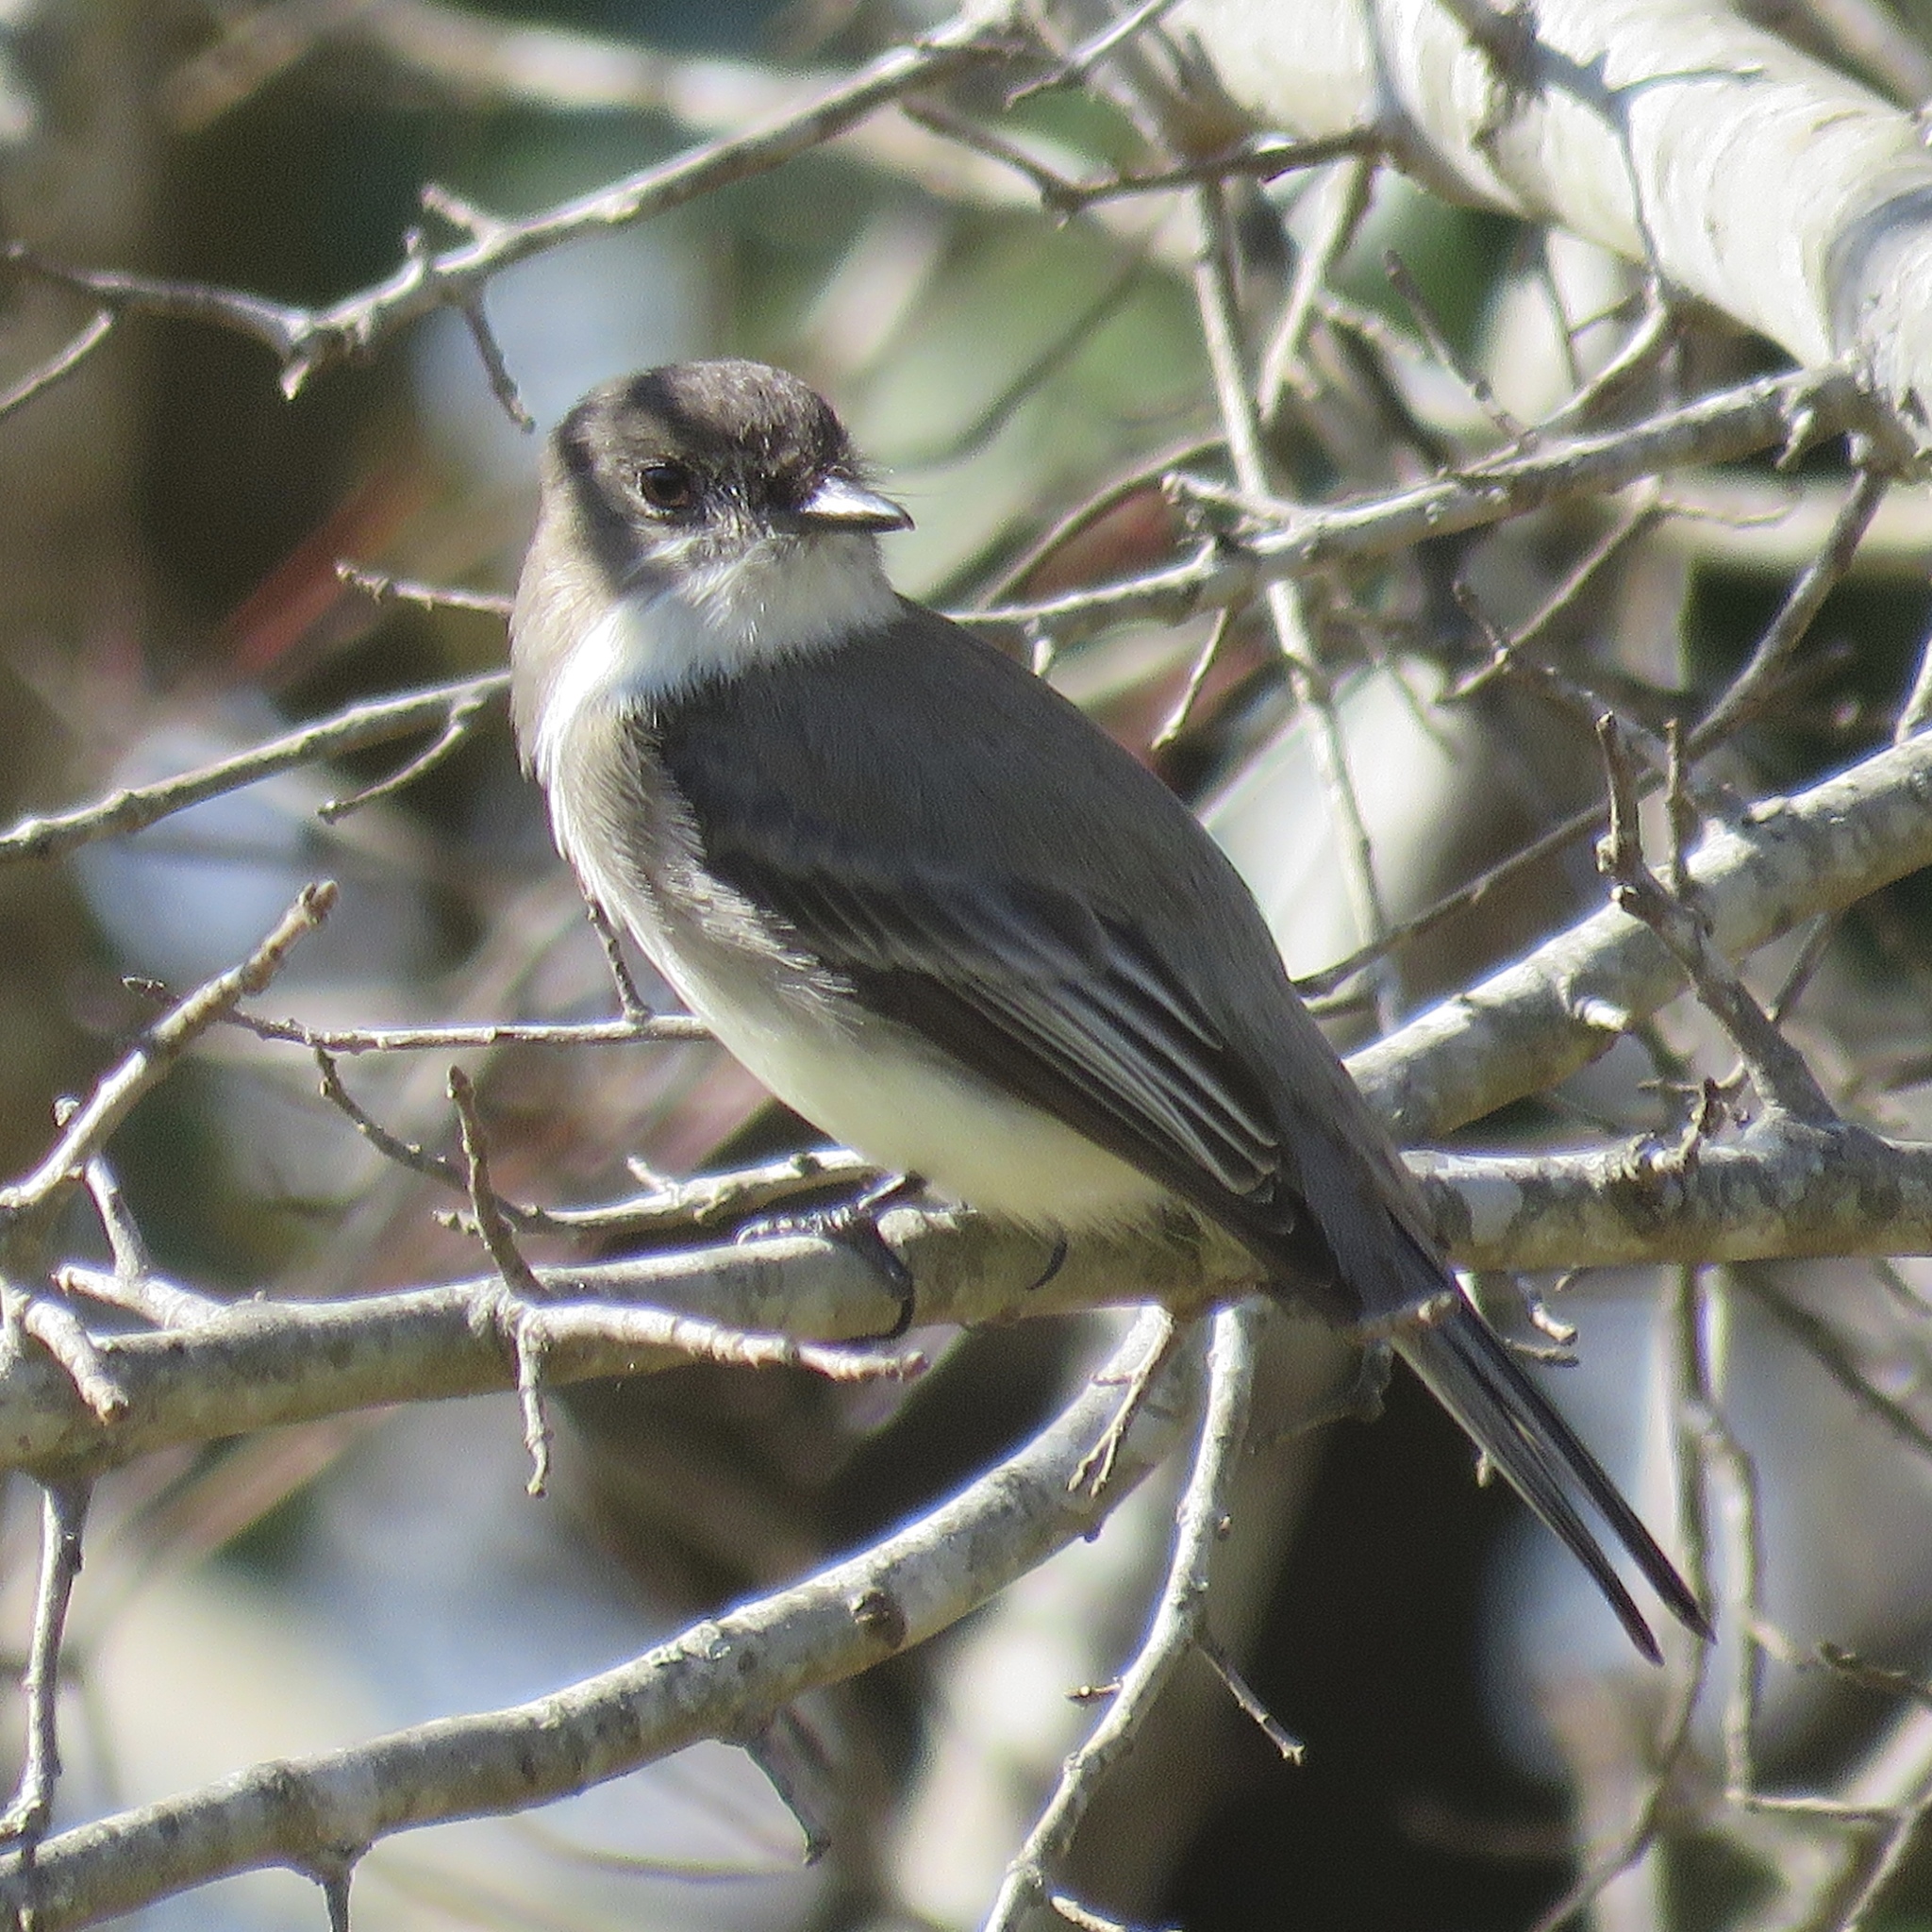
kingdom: Animalia
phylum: Chordata
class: Aves
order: Passeriformes
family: Tyrannidae
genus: Sayornis
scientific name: Sayornis phoebe
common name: Eastern phoebe
